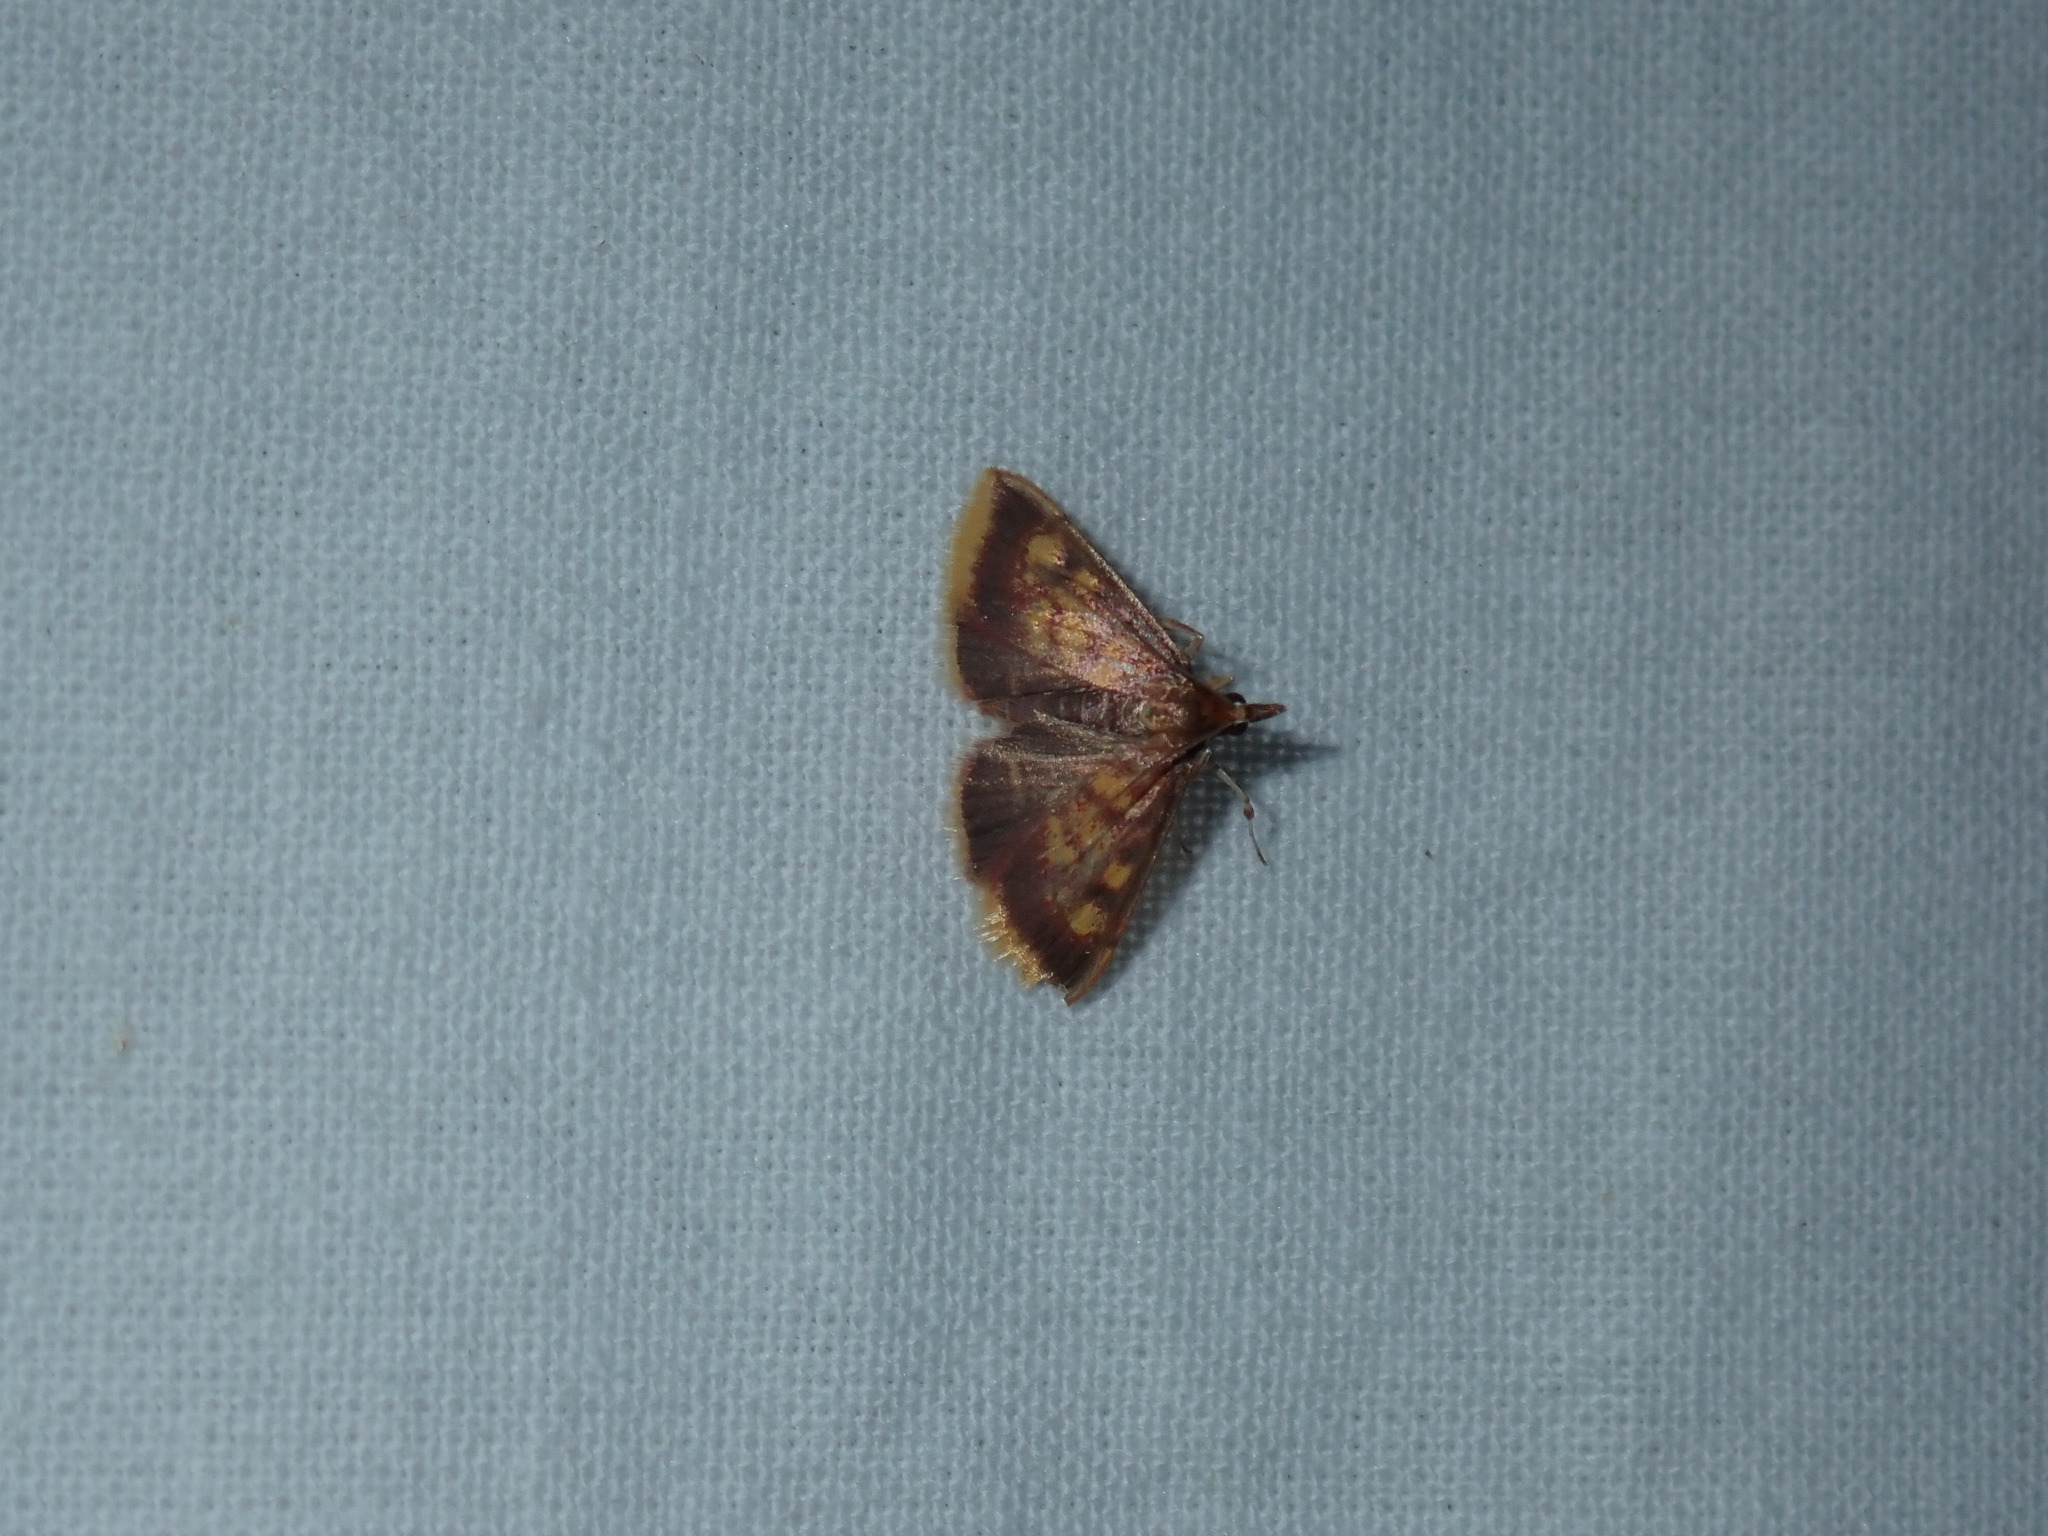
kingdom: Animalia
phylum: Arthropoda
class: Insecta
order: Lepidoptera
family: Crambidae
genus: Pyrausta
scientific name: Pyrausta acrionalis
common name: Mint-loving pyrausta moth
